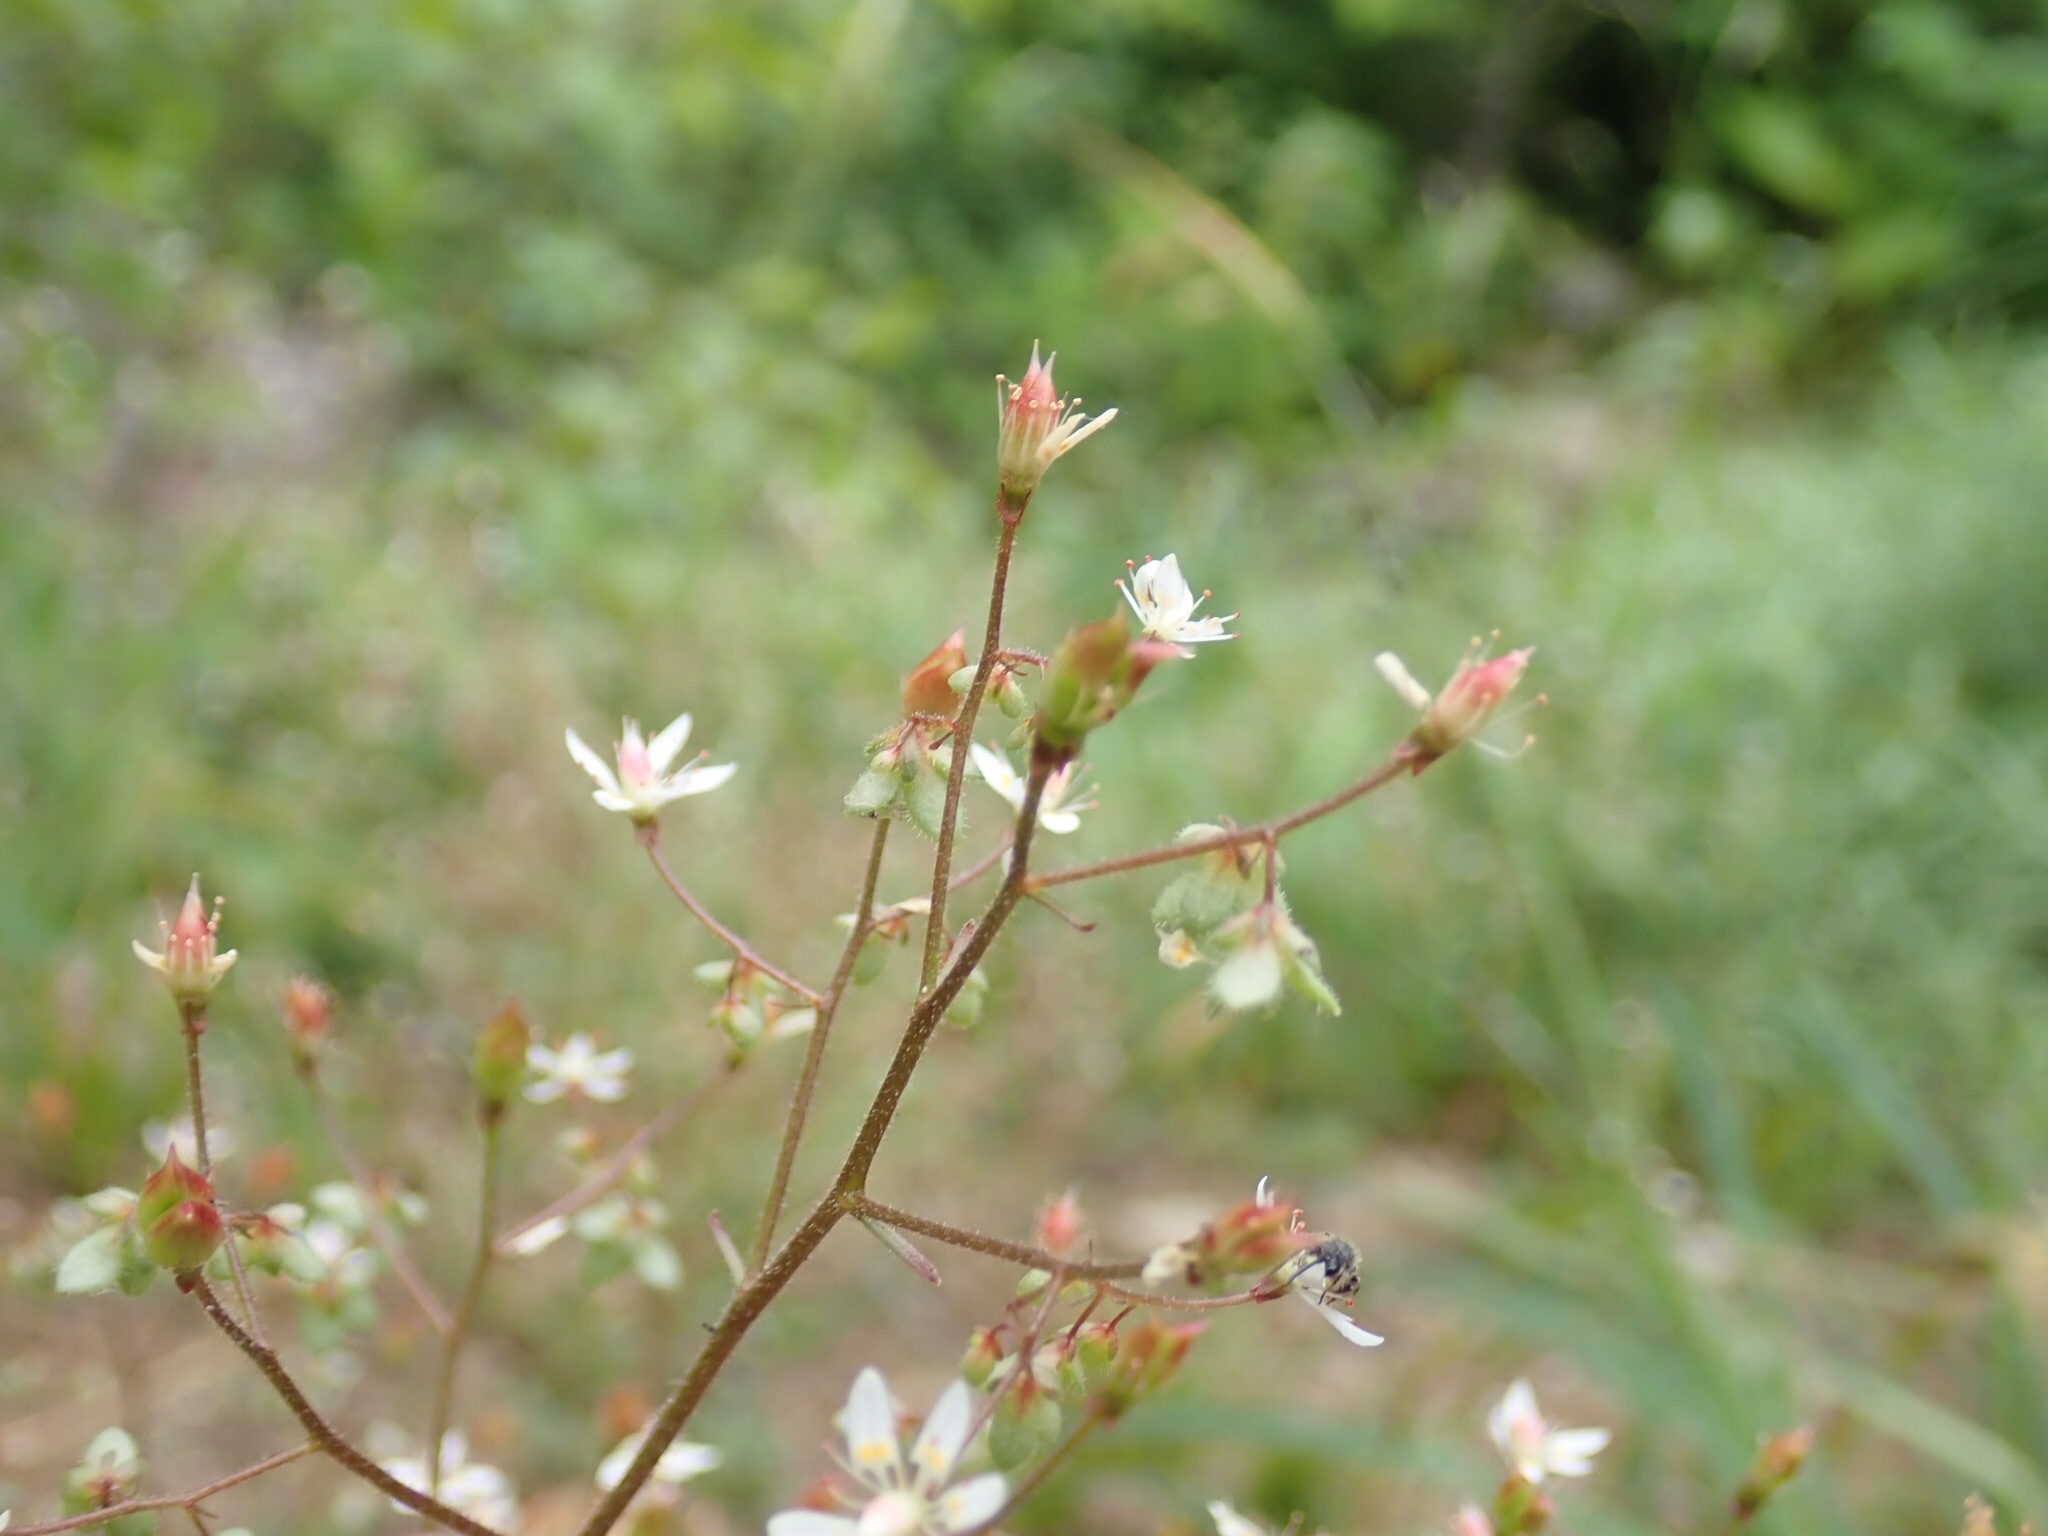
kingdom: Plantae
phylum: Tracheophyta
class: Magnoliopsida
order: Saxifragales
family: Saxifragaceae
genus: Micranthes
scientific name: Micranthes ferruginea
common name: Rusty saxifrage
